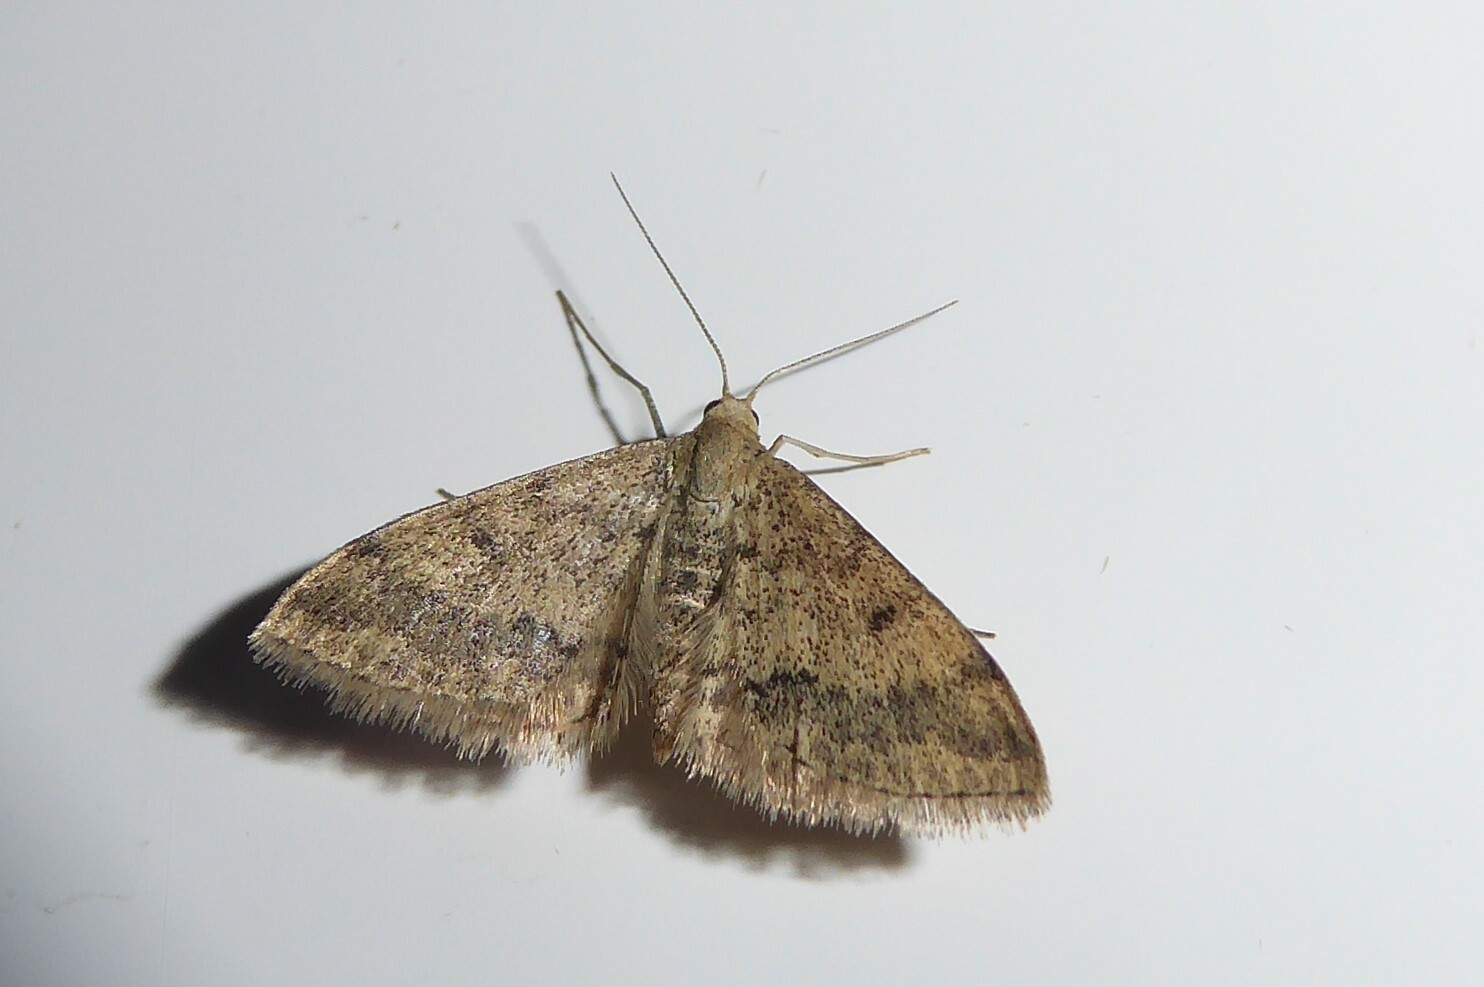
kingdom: Animalia
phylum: Arthropoda
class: Insecta
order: Lepidoptera
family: Geometridae
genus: Scopula
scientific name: Scopula rubraria
